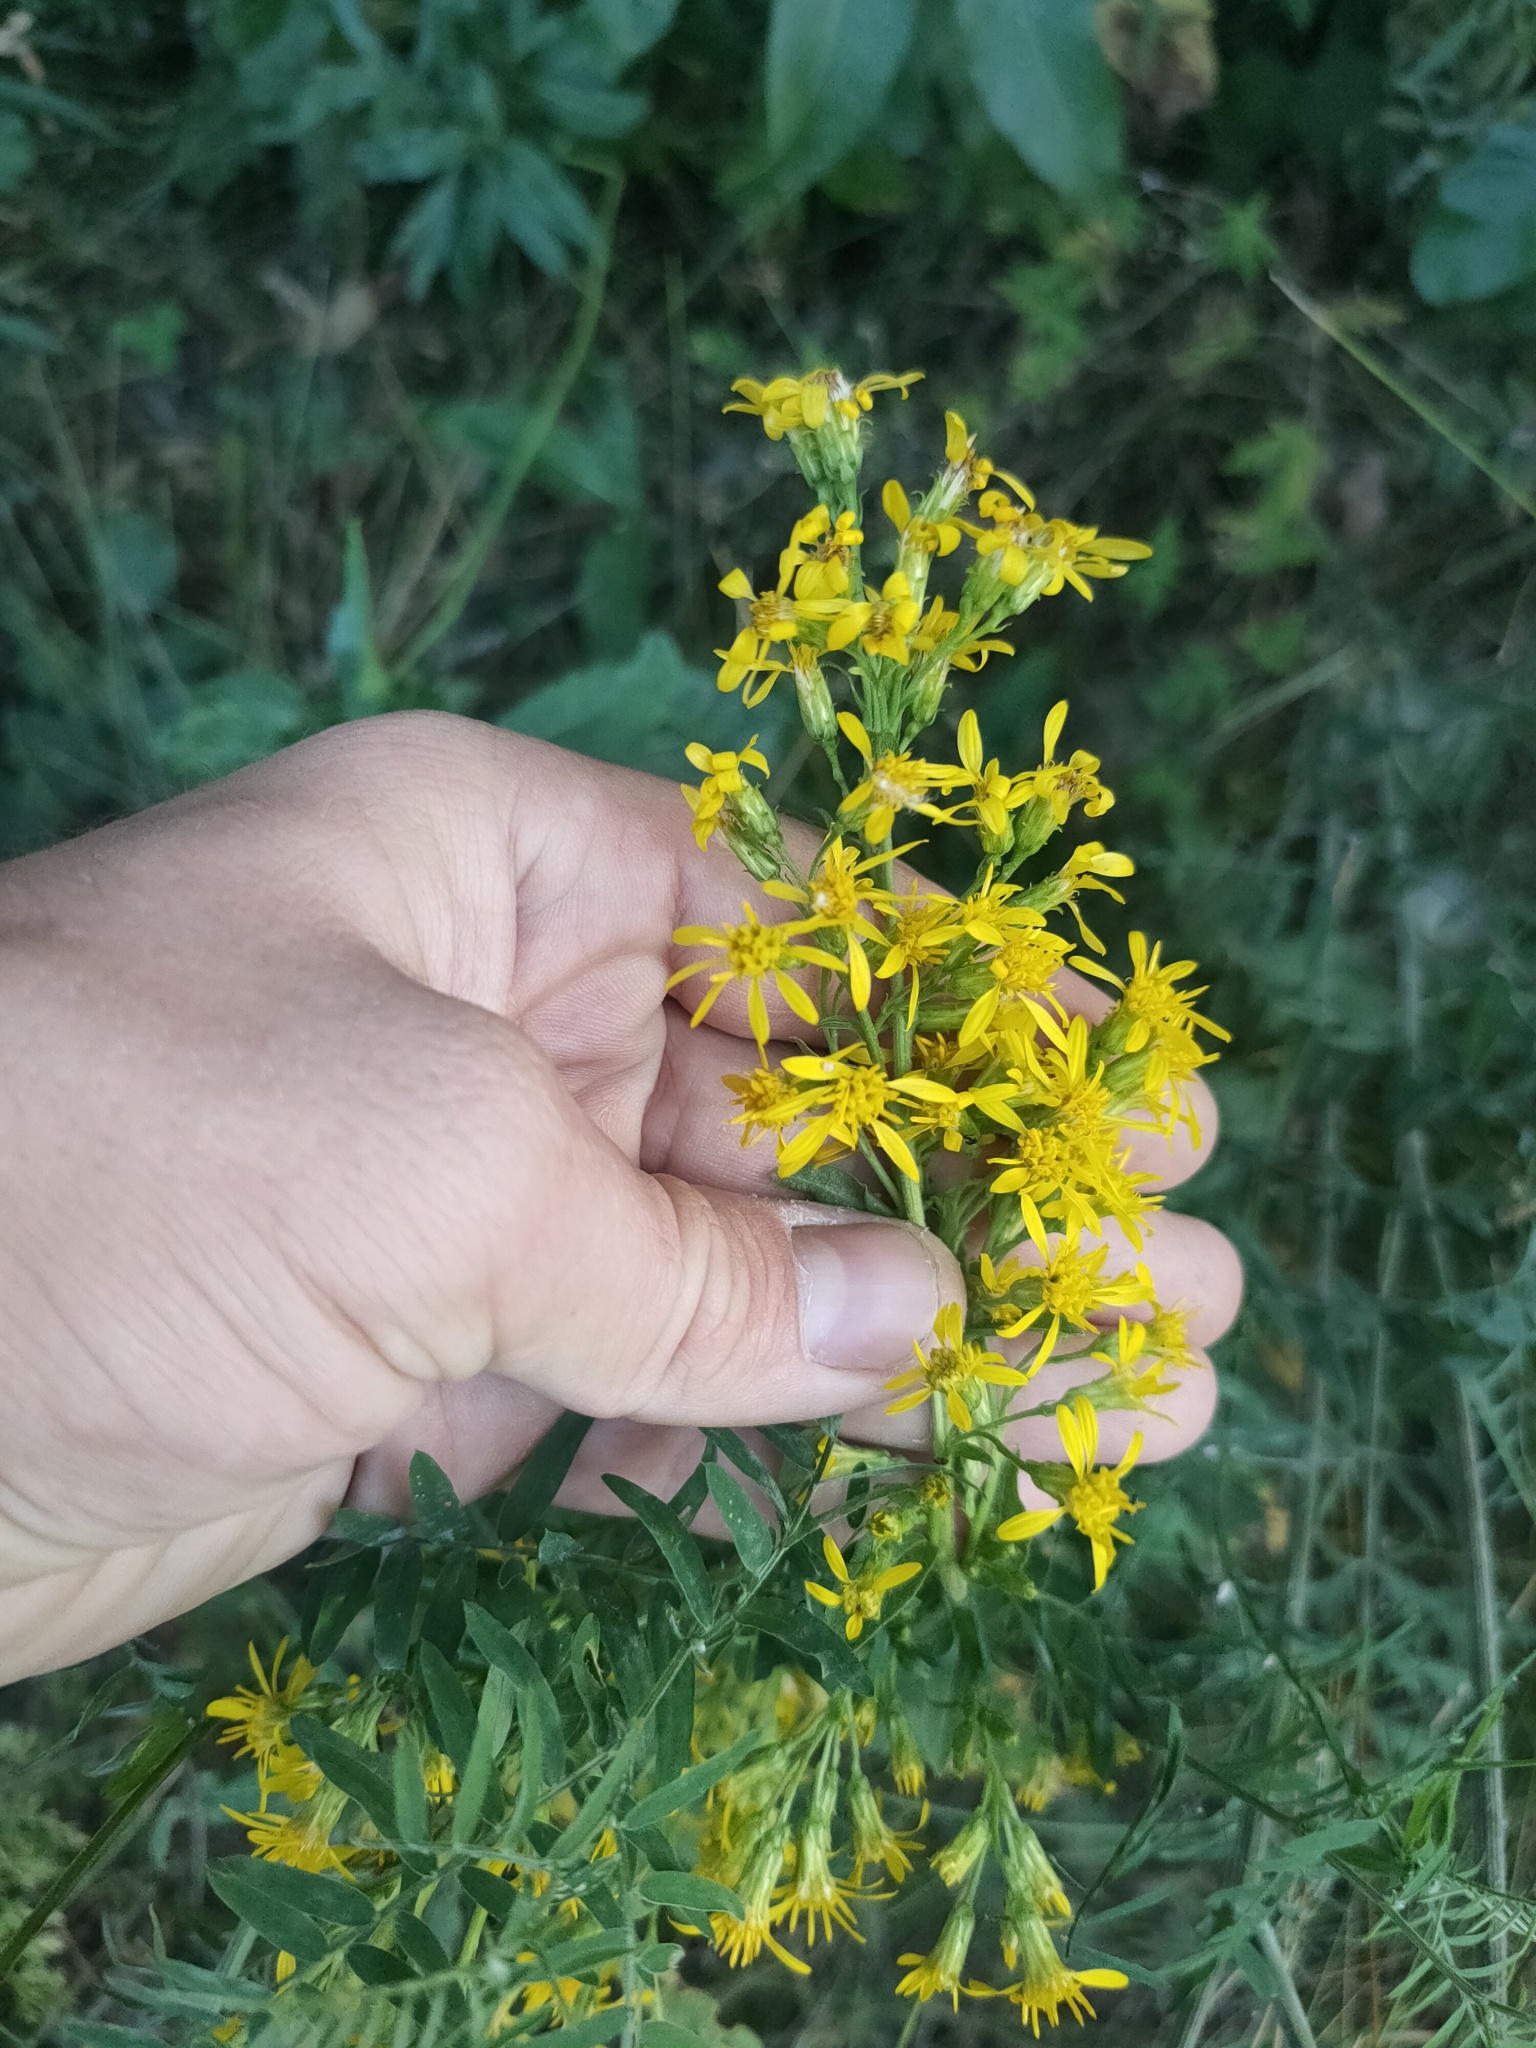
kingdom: Plantae
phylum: Tracheophyta
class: Magnoliopsida
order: Asterales
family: Asteraceae
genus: Solidago
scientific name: Solidago virgaurea
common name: Goldenrod
